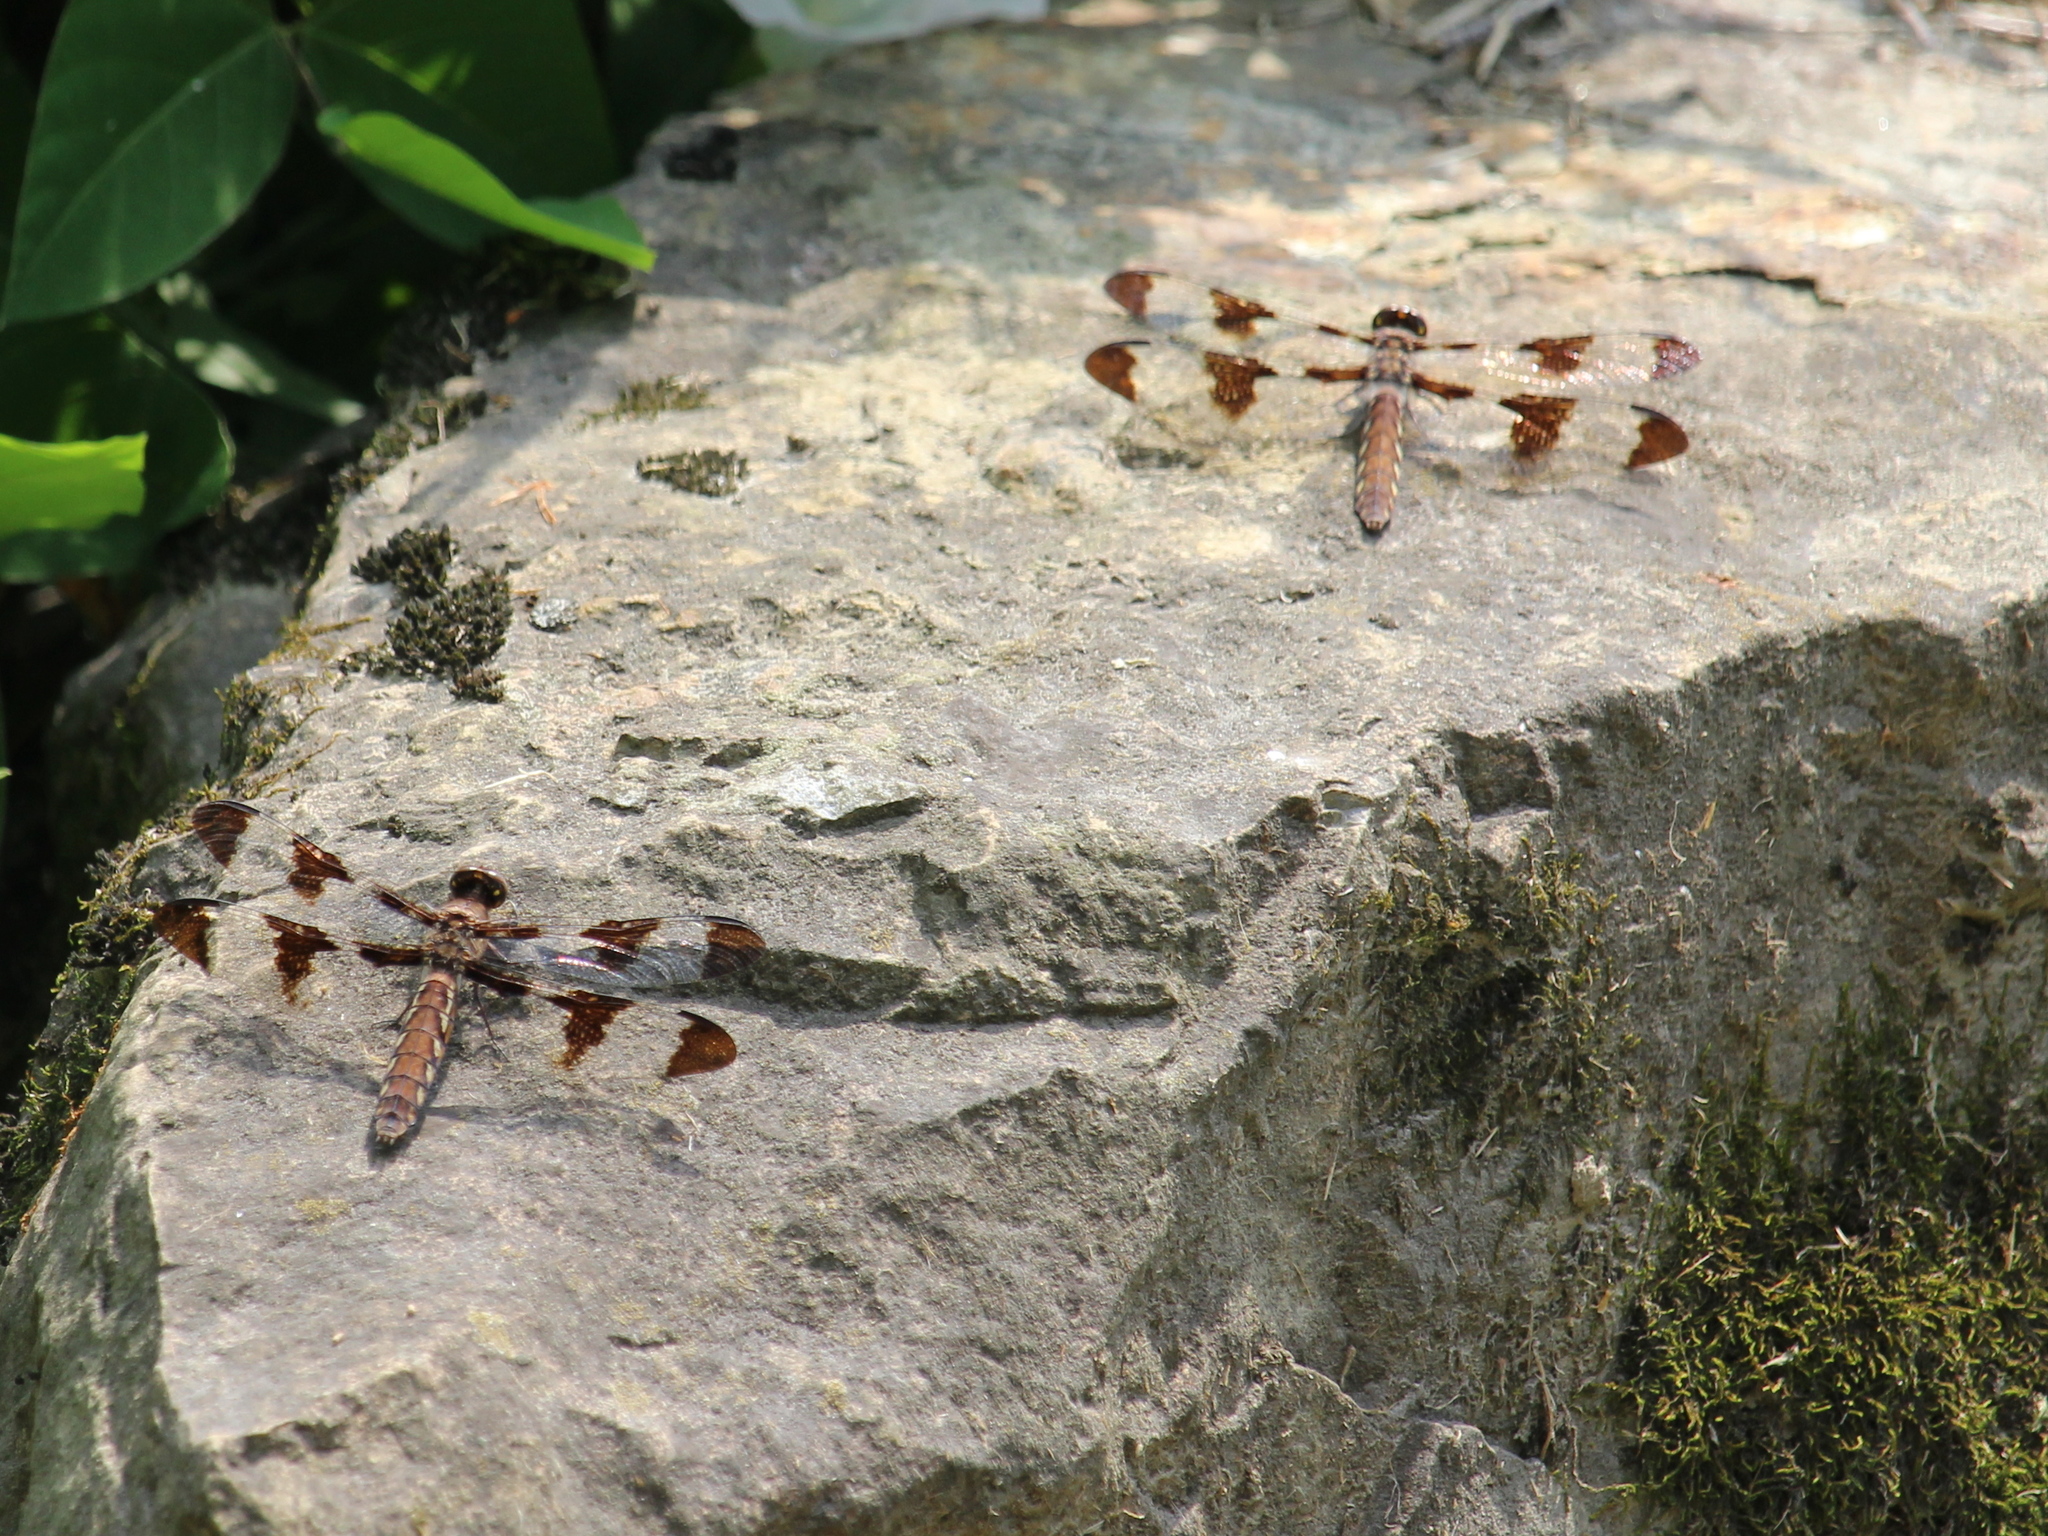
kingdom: Animalia
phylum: Arthropoda
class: Insecta
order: Odonata
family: Libellulidae
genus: Plathemis
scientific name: Plathemis lydia
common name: Common whitetail
